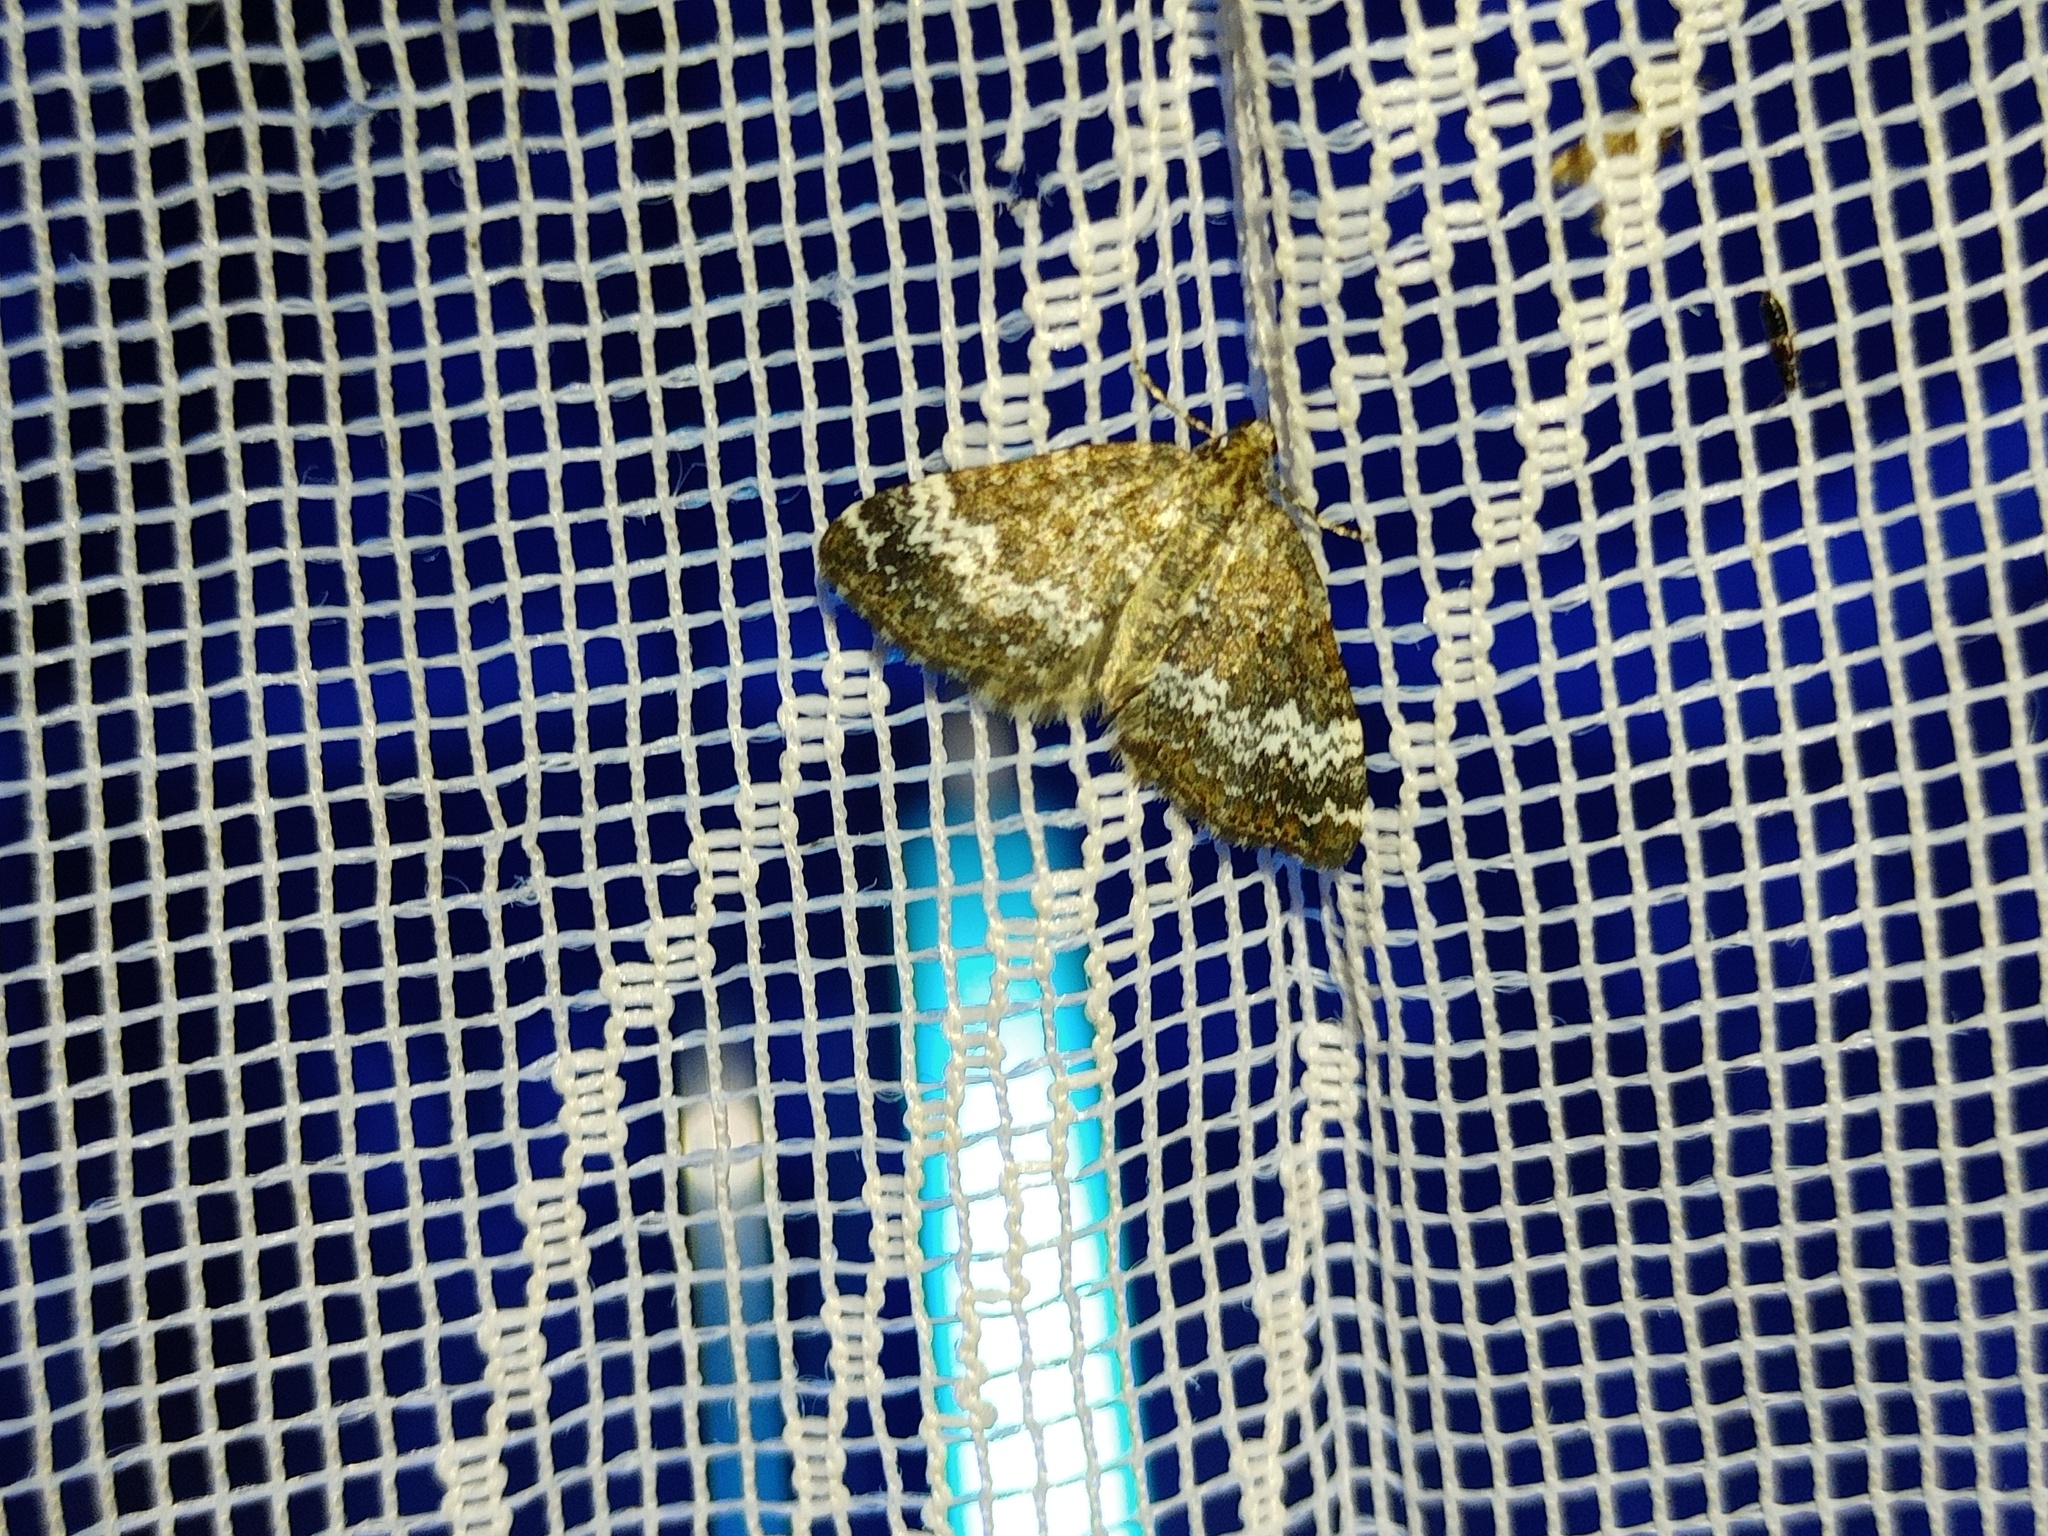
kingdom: Animalia
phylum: Arthropoda
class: Insecta
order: Lepidoptera
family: Geometridae
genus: Perizoma
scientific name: Perizoma alchemillata
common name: Small rivulet
